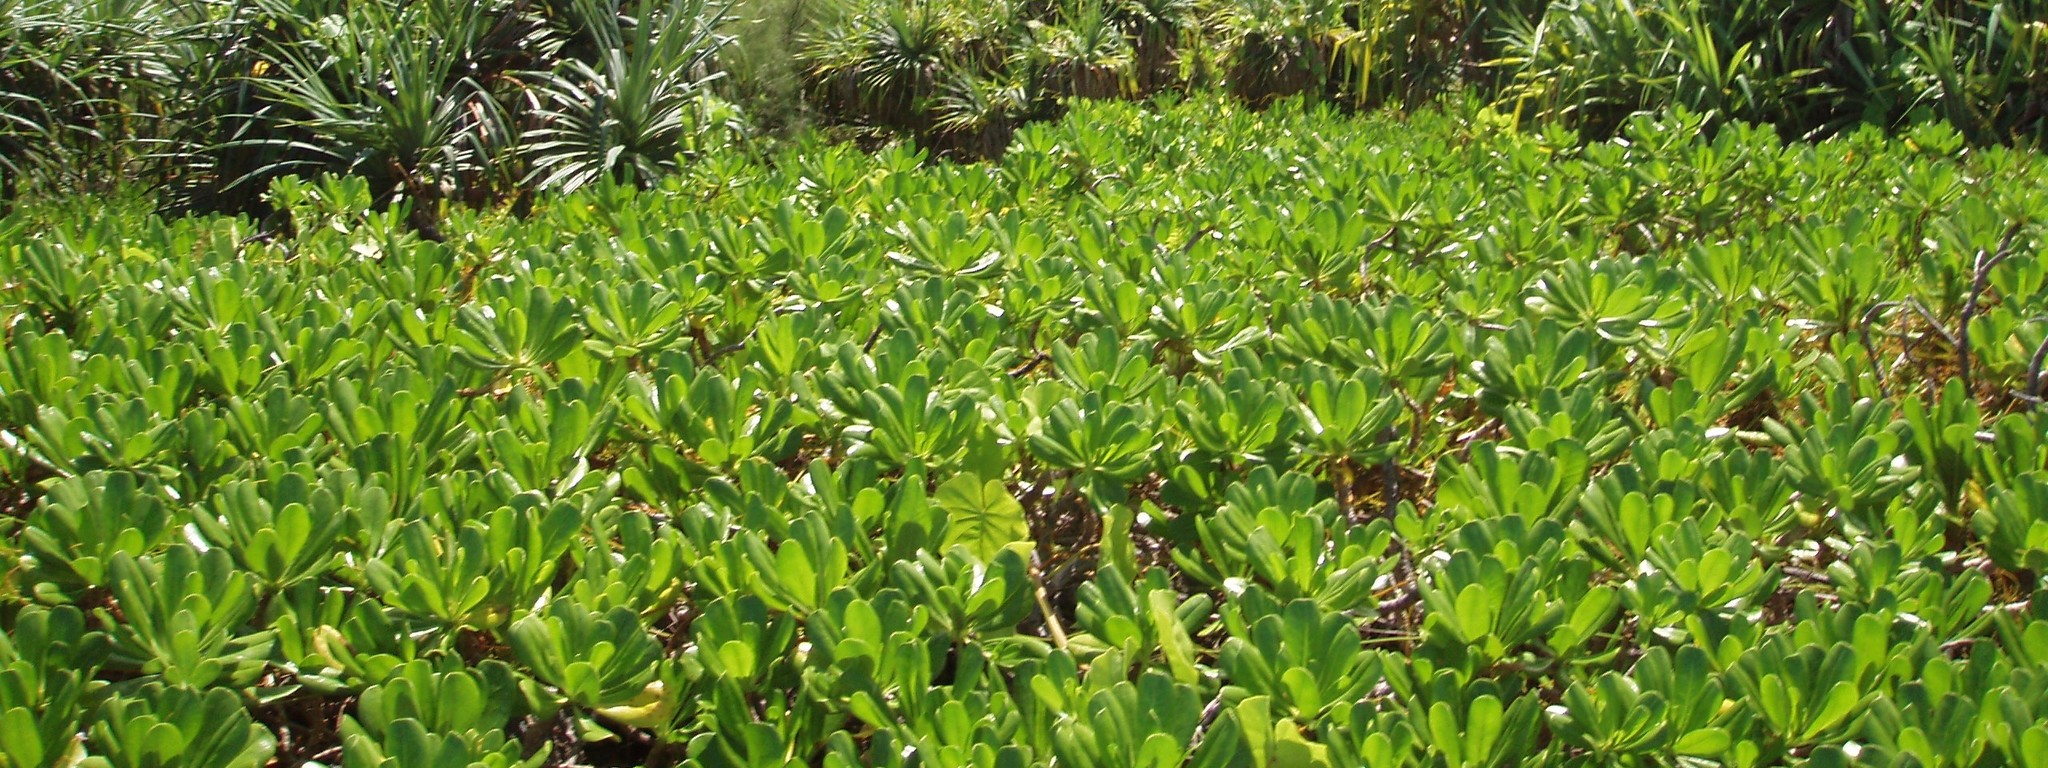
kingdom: Plantae
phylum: Tracheophyta
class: Magnoliopsida
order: Asterales
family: Goodeniaceae
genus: Scaevola
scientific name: Scaevola taccada
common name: Sea lettucetree
